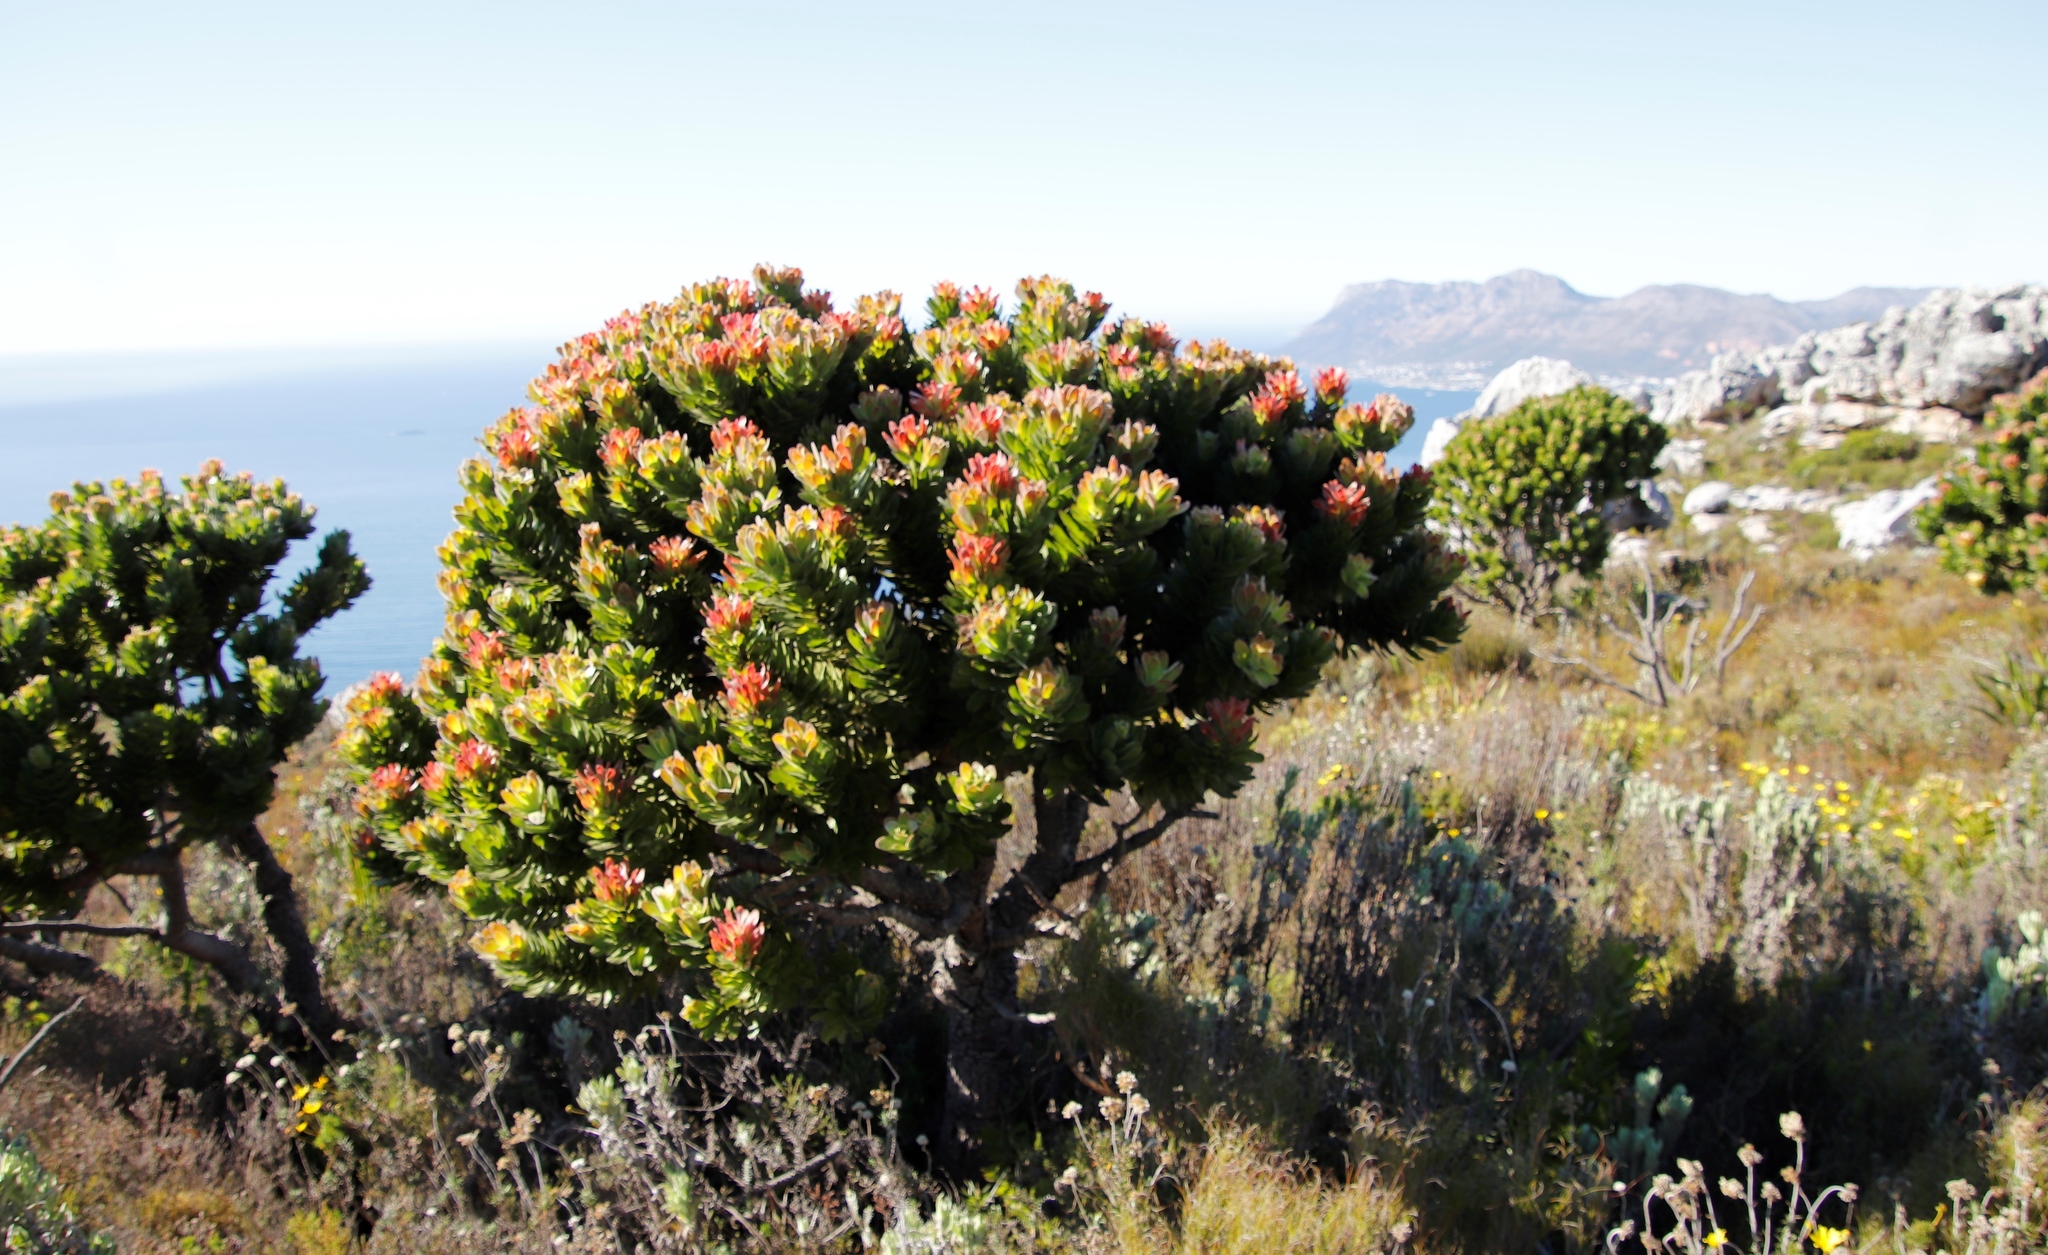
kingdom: Plantae
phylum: Tracheophyta
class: Magnoliopsida
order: Proteales
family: Proteaceae
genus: Mimetes
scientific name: Mimetes fimbriifolius
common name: Fringed bottlebrush
